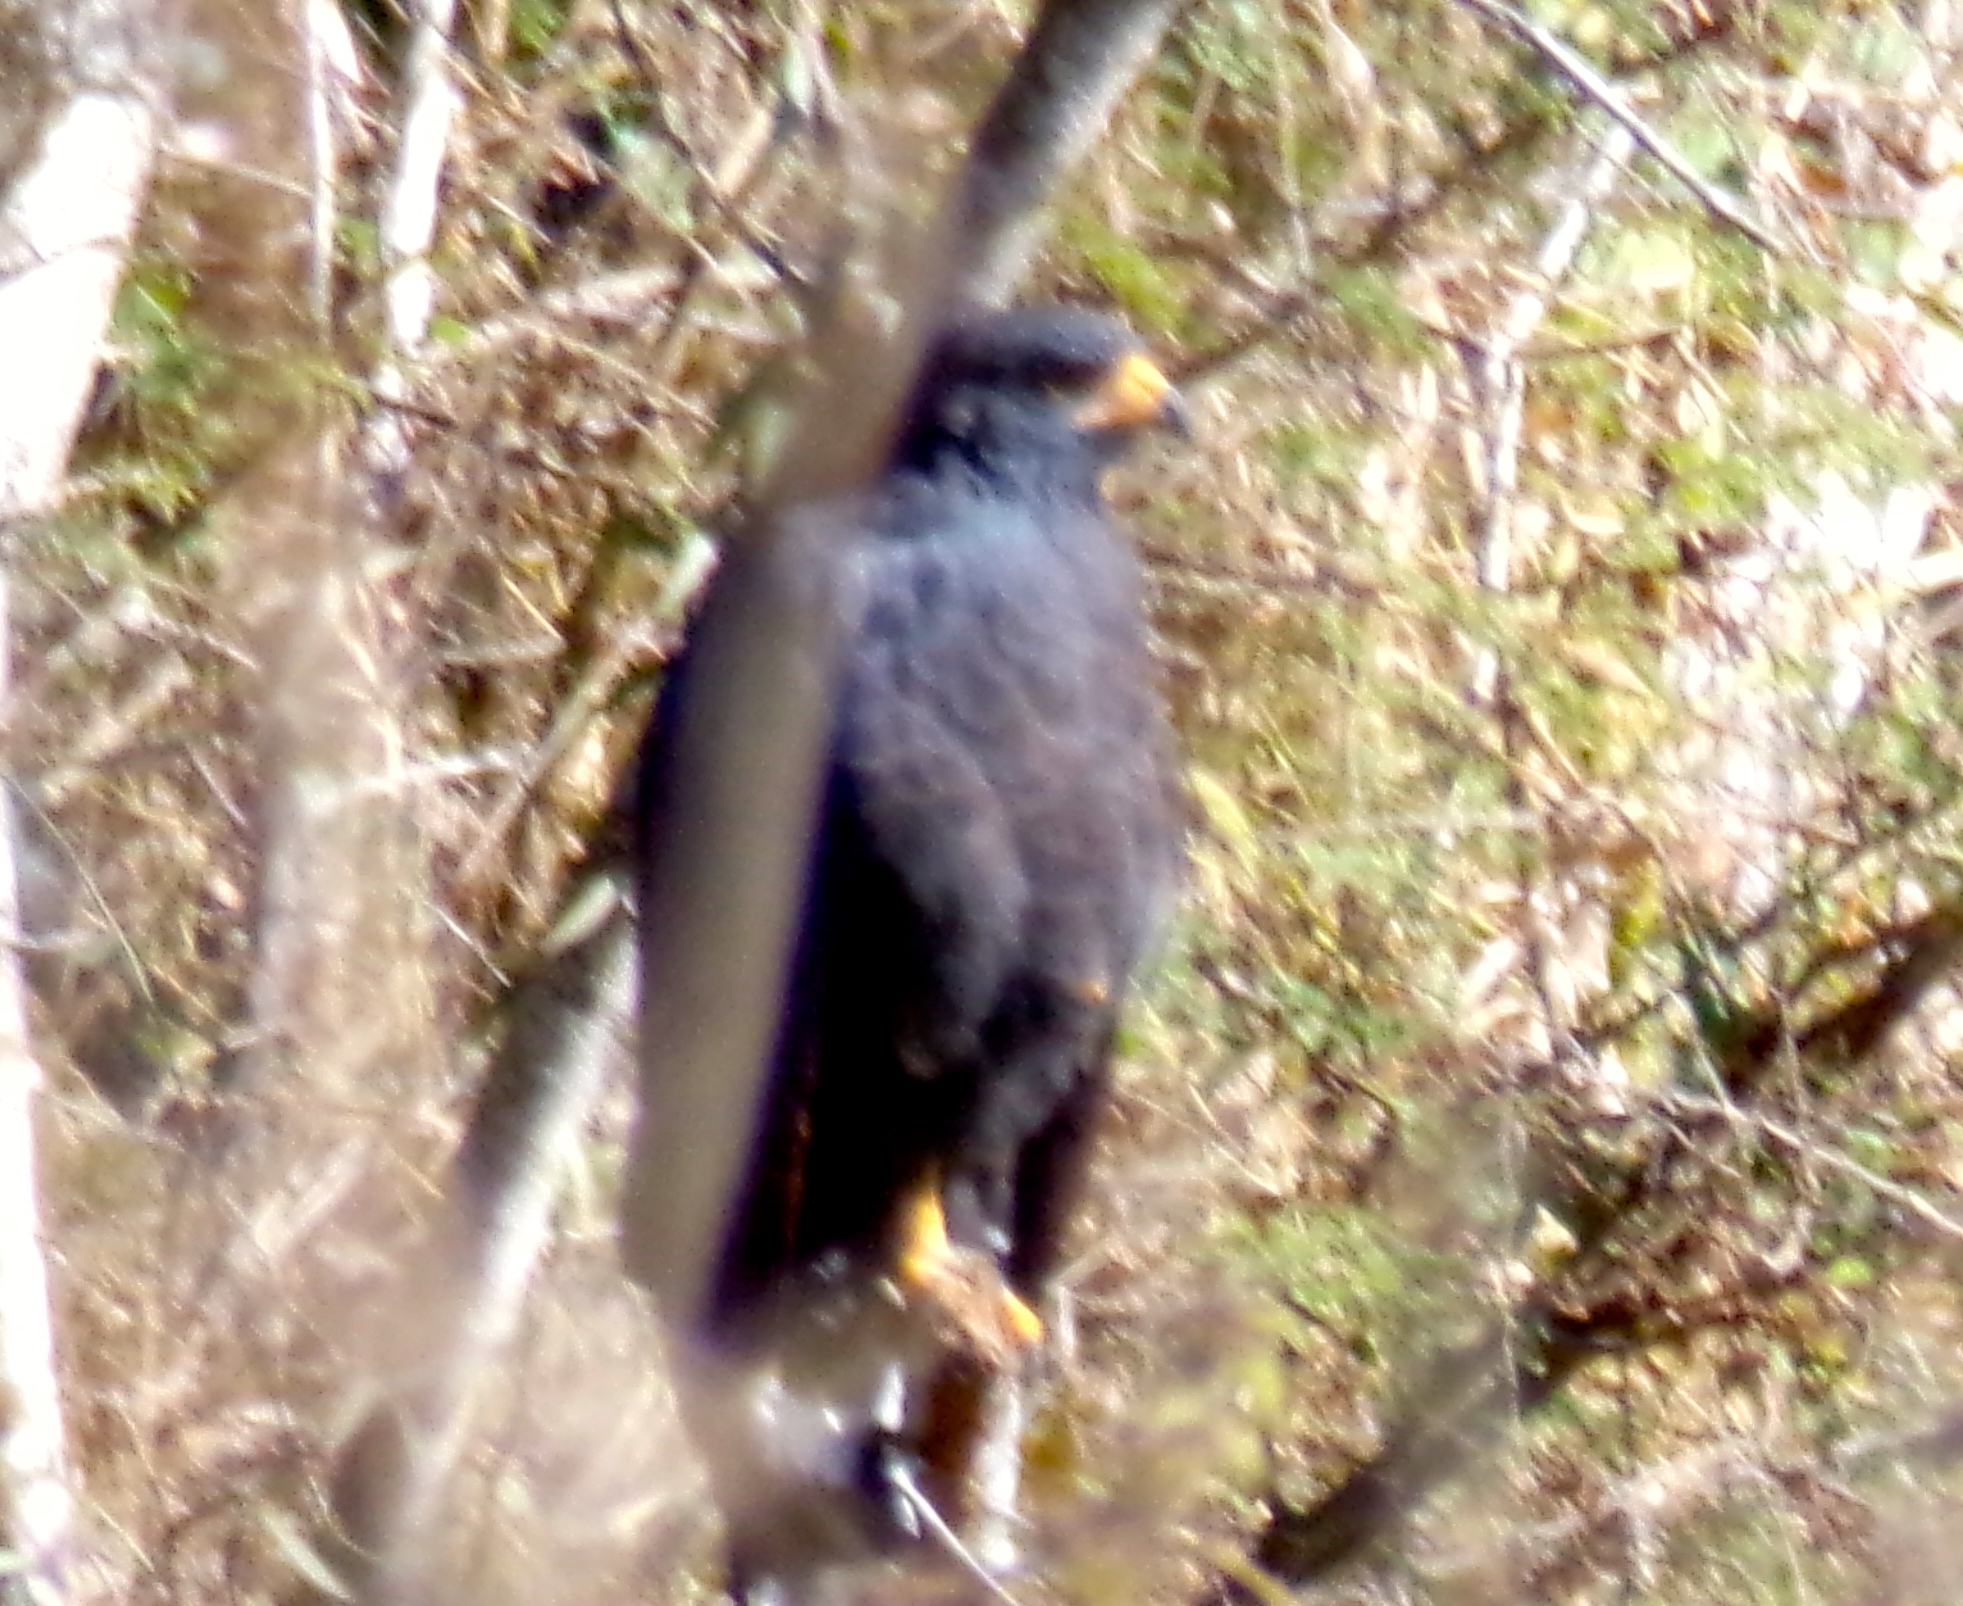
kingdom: Animalia
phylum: Chordata
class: Aves
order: Accipitriformes
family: Accipitridae
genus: Buteogallus
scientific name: Buteogallus anthracinus
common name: Common black hawk
